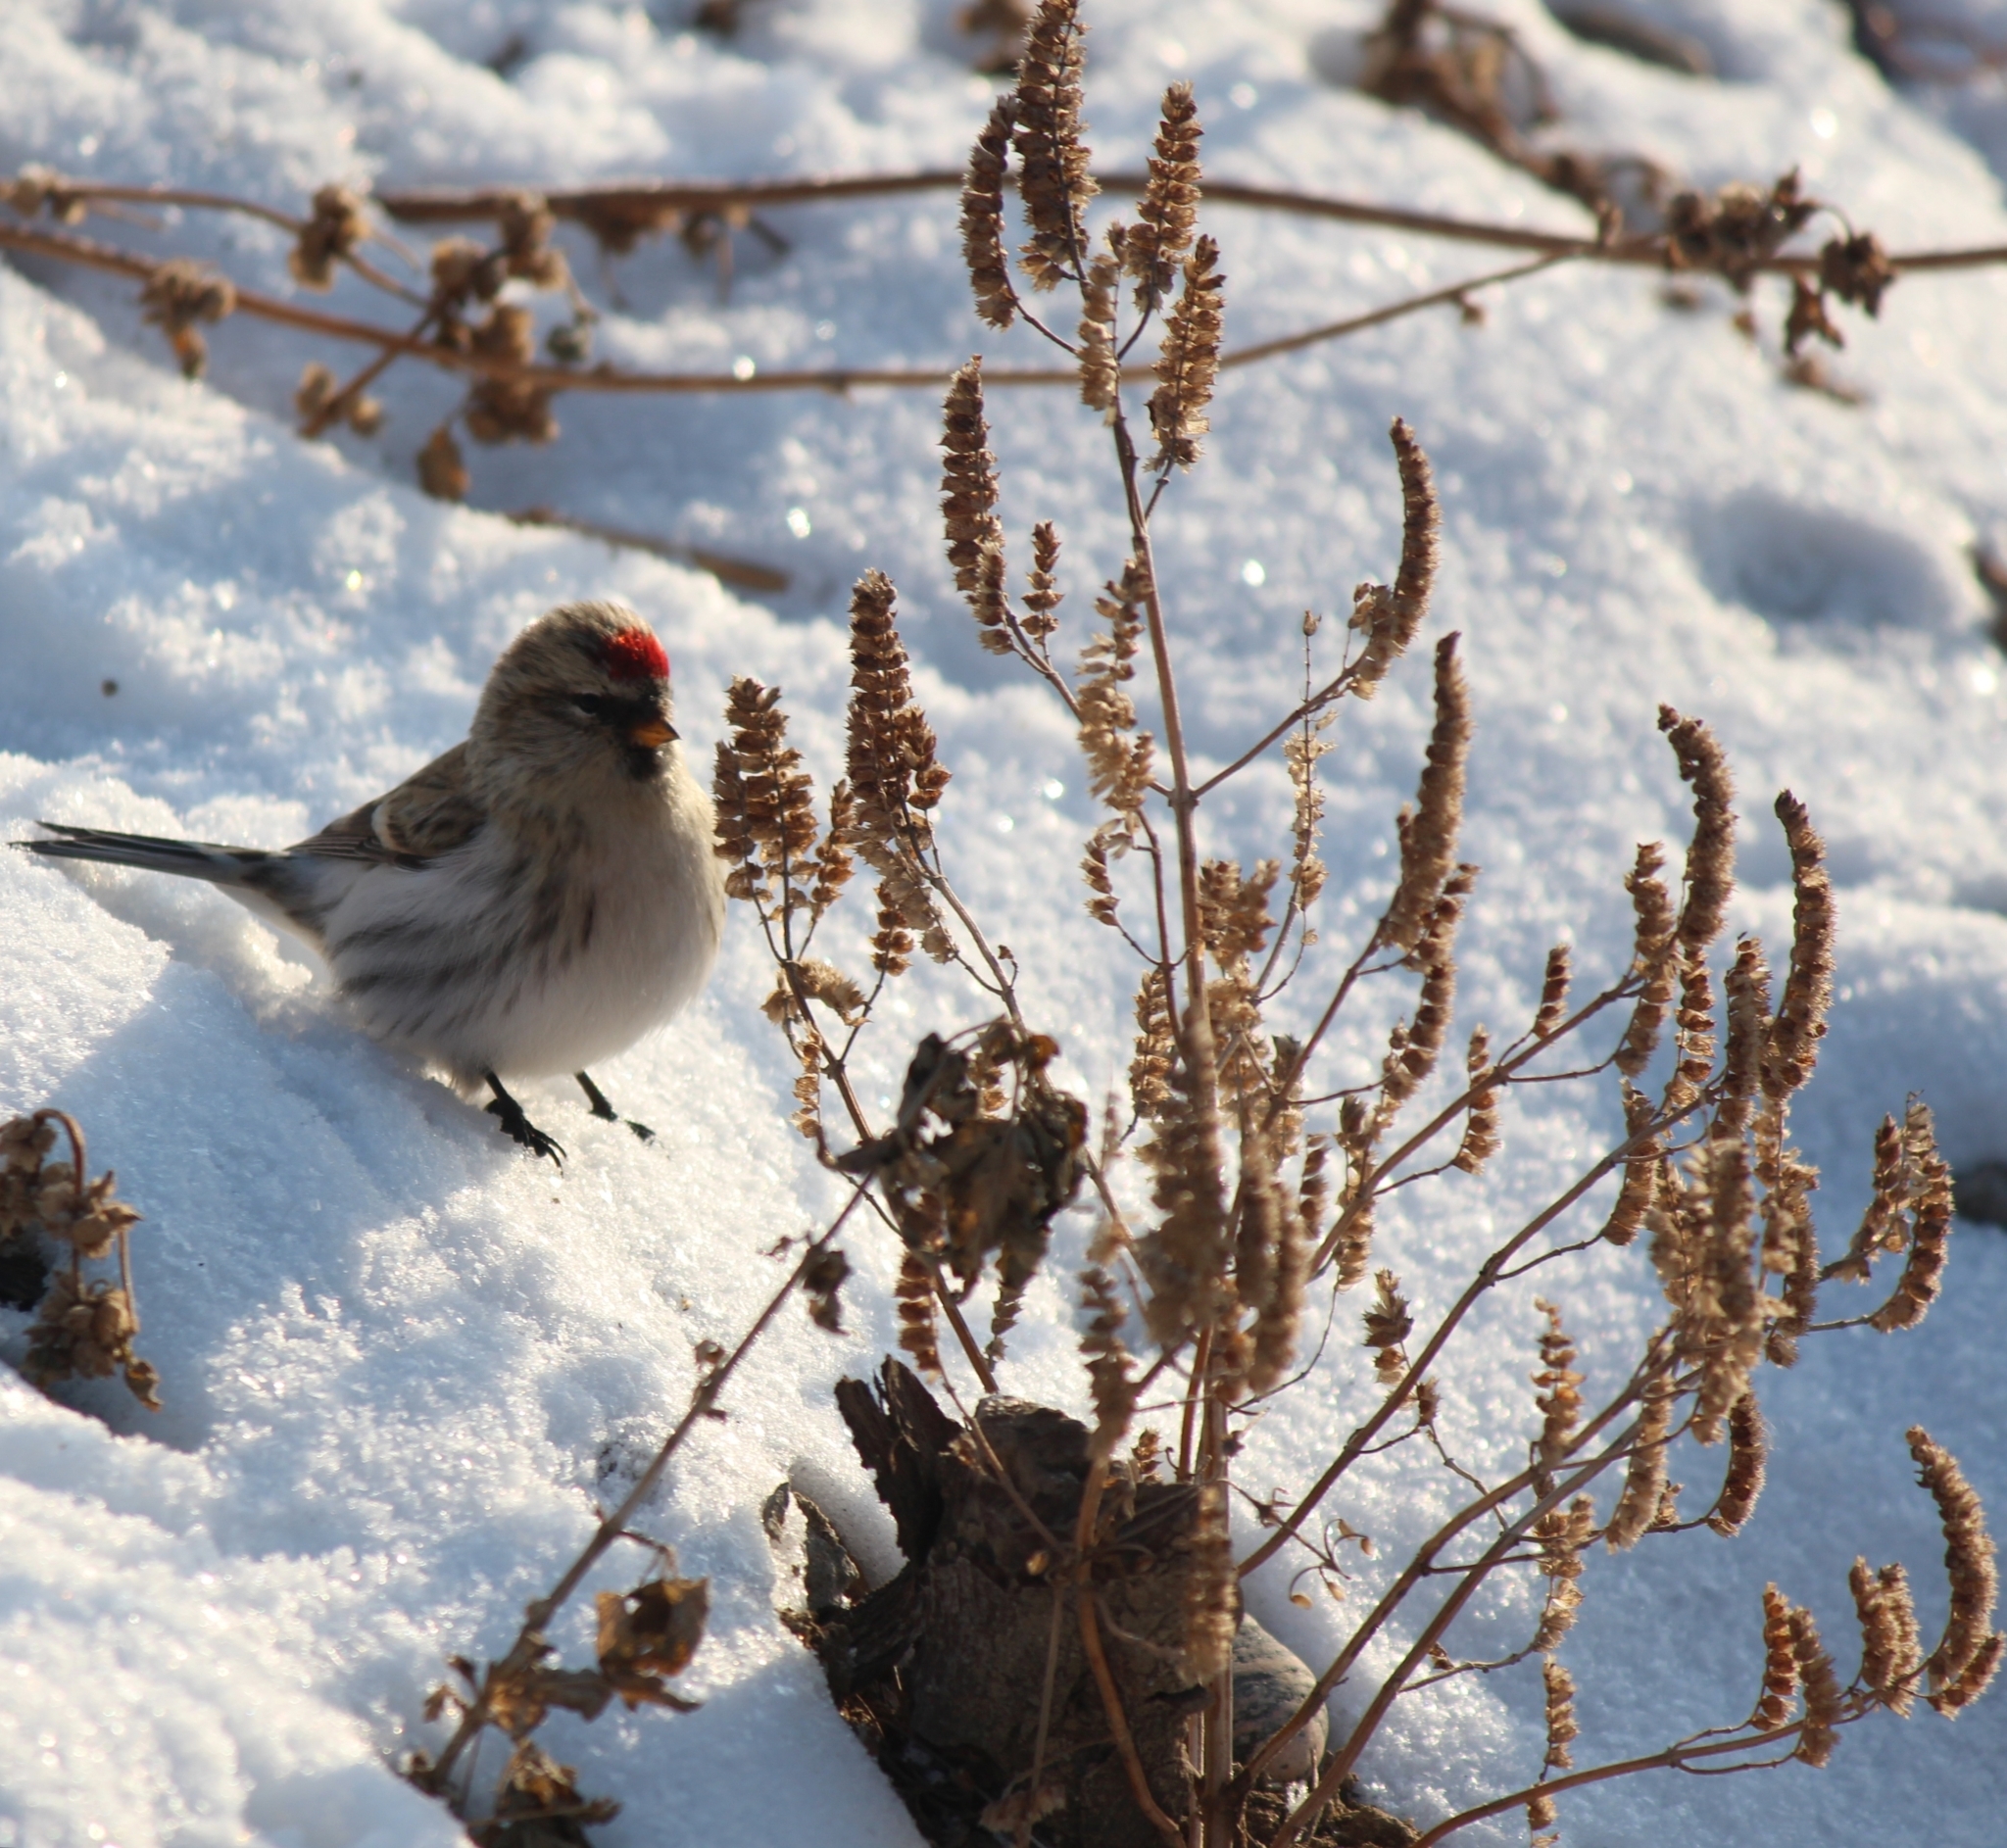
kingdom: Plantae
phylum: Tracheophyta
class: Magnoliopsida
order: Lamiales
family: Lamiaceae
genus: Elsholtzia
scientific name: Elsholtzia ciliata
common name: Ciliate elsholtzia
